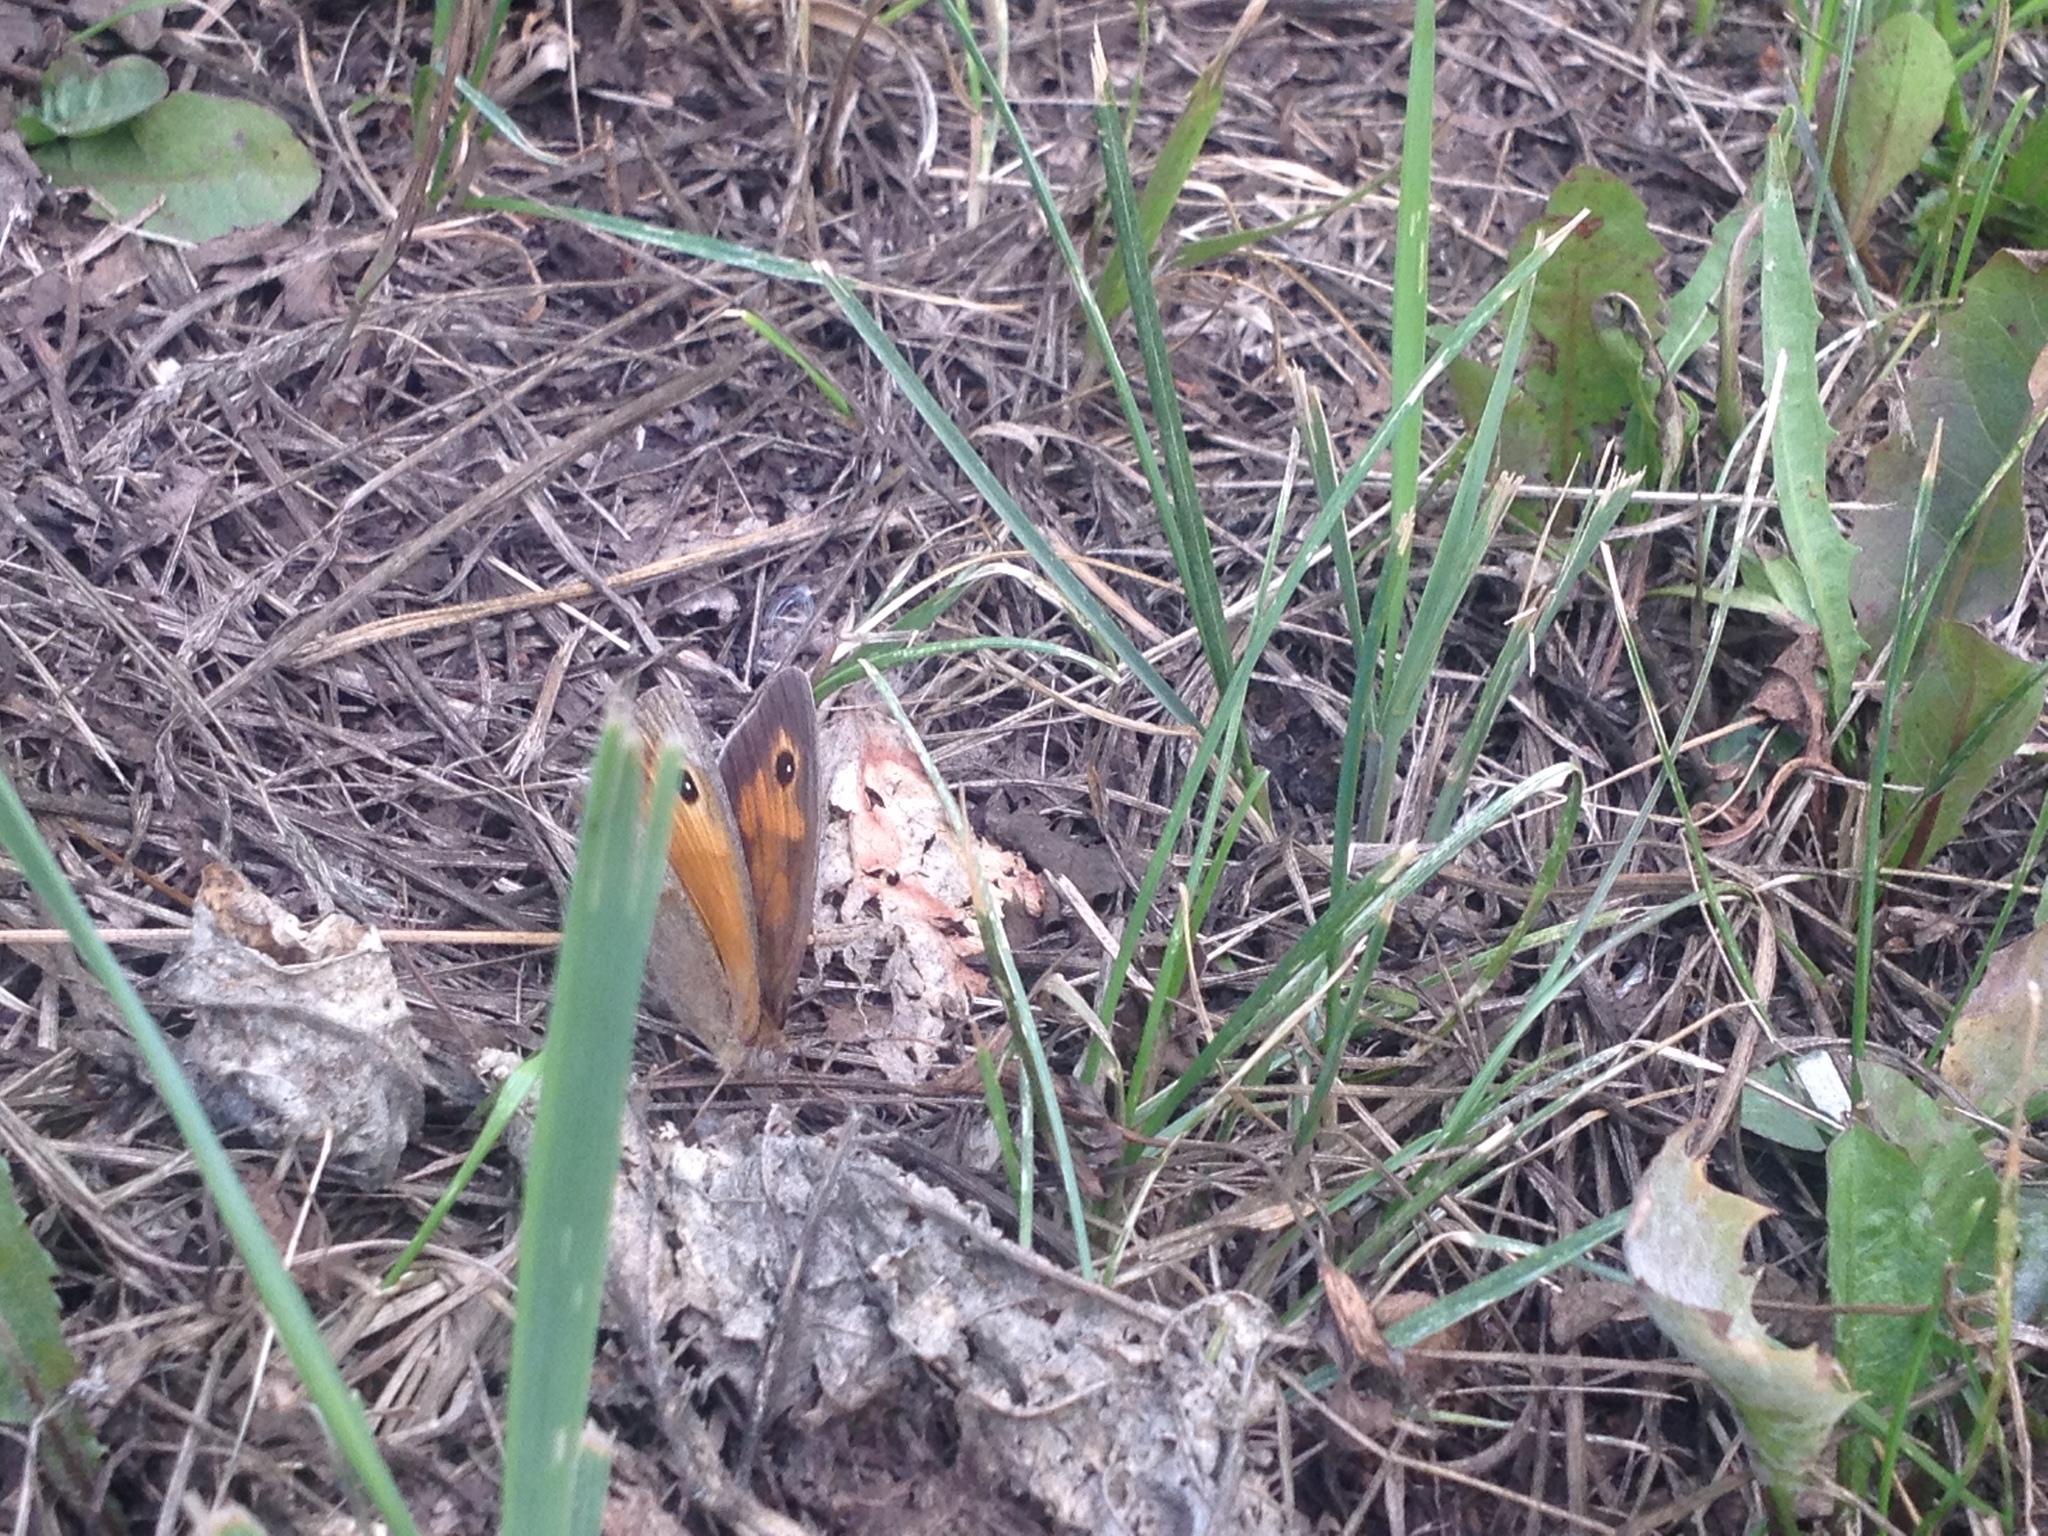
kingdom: Animalia
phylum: Arthropoda
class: Insecta
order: Lepidoptera
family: Nymphalidae
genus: Maniola
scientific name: Maniola jurtina
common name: Meadow brown
